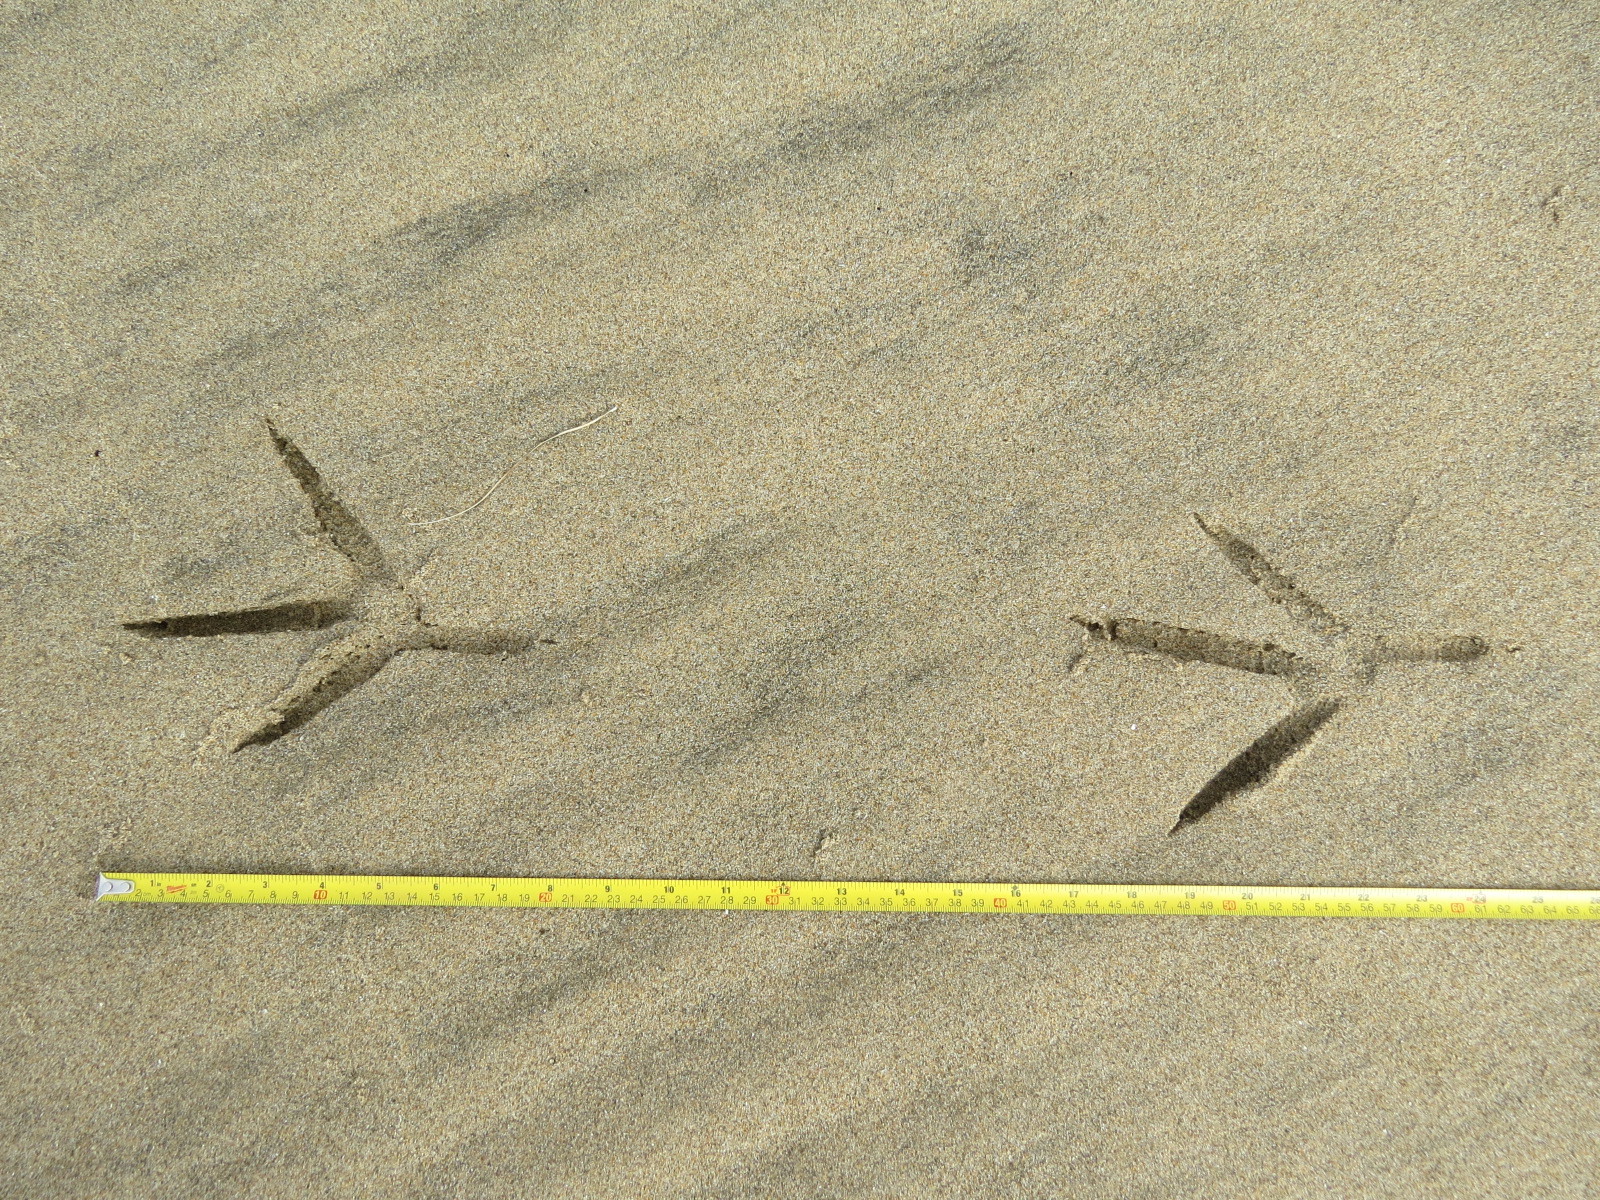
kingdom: Animalia
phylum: Chordata
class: Aves
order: Pelecaniformes
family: Ardeidae
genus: Ardea
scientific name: Ardea herodias
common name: Great blue heron
